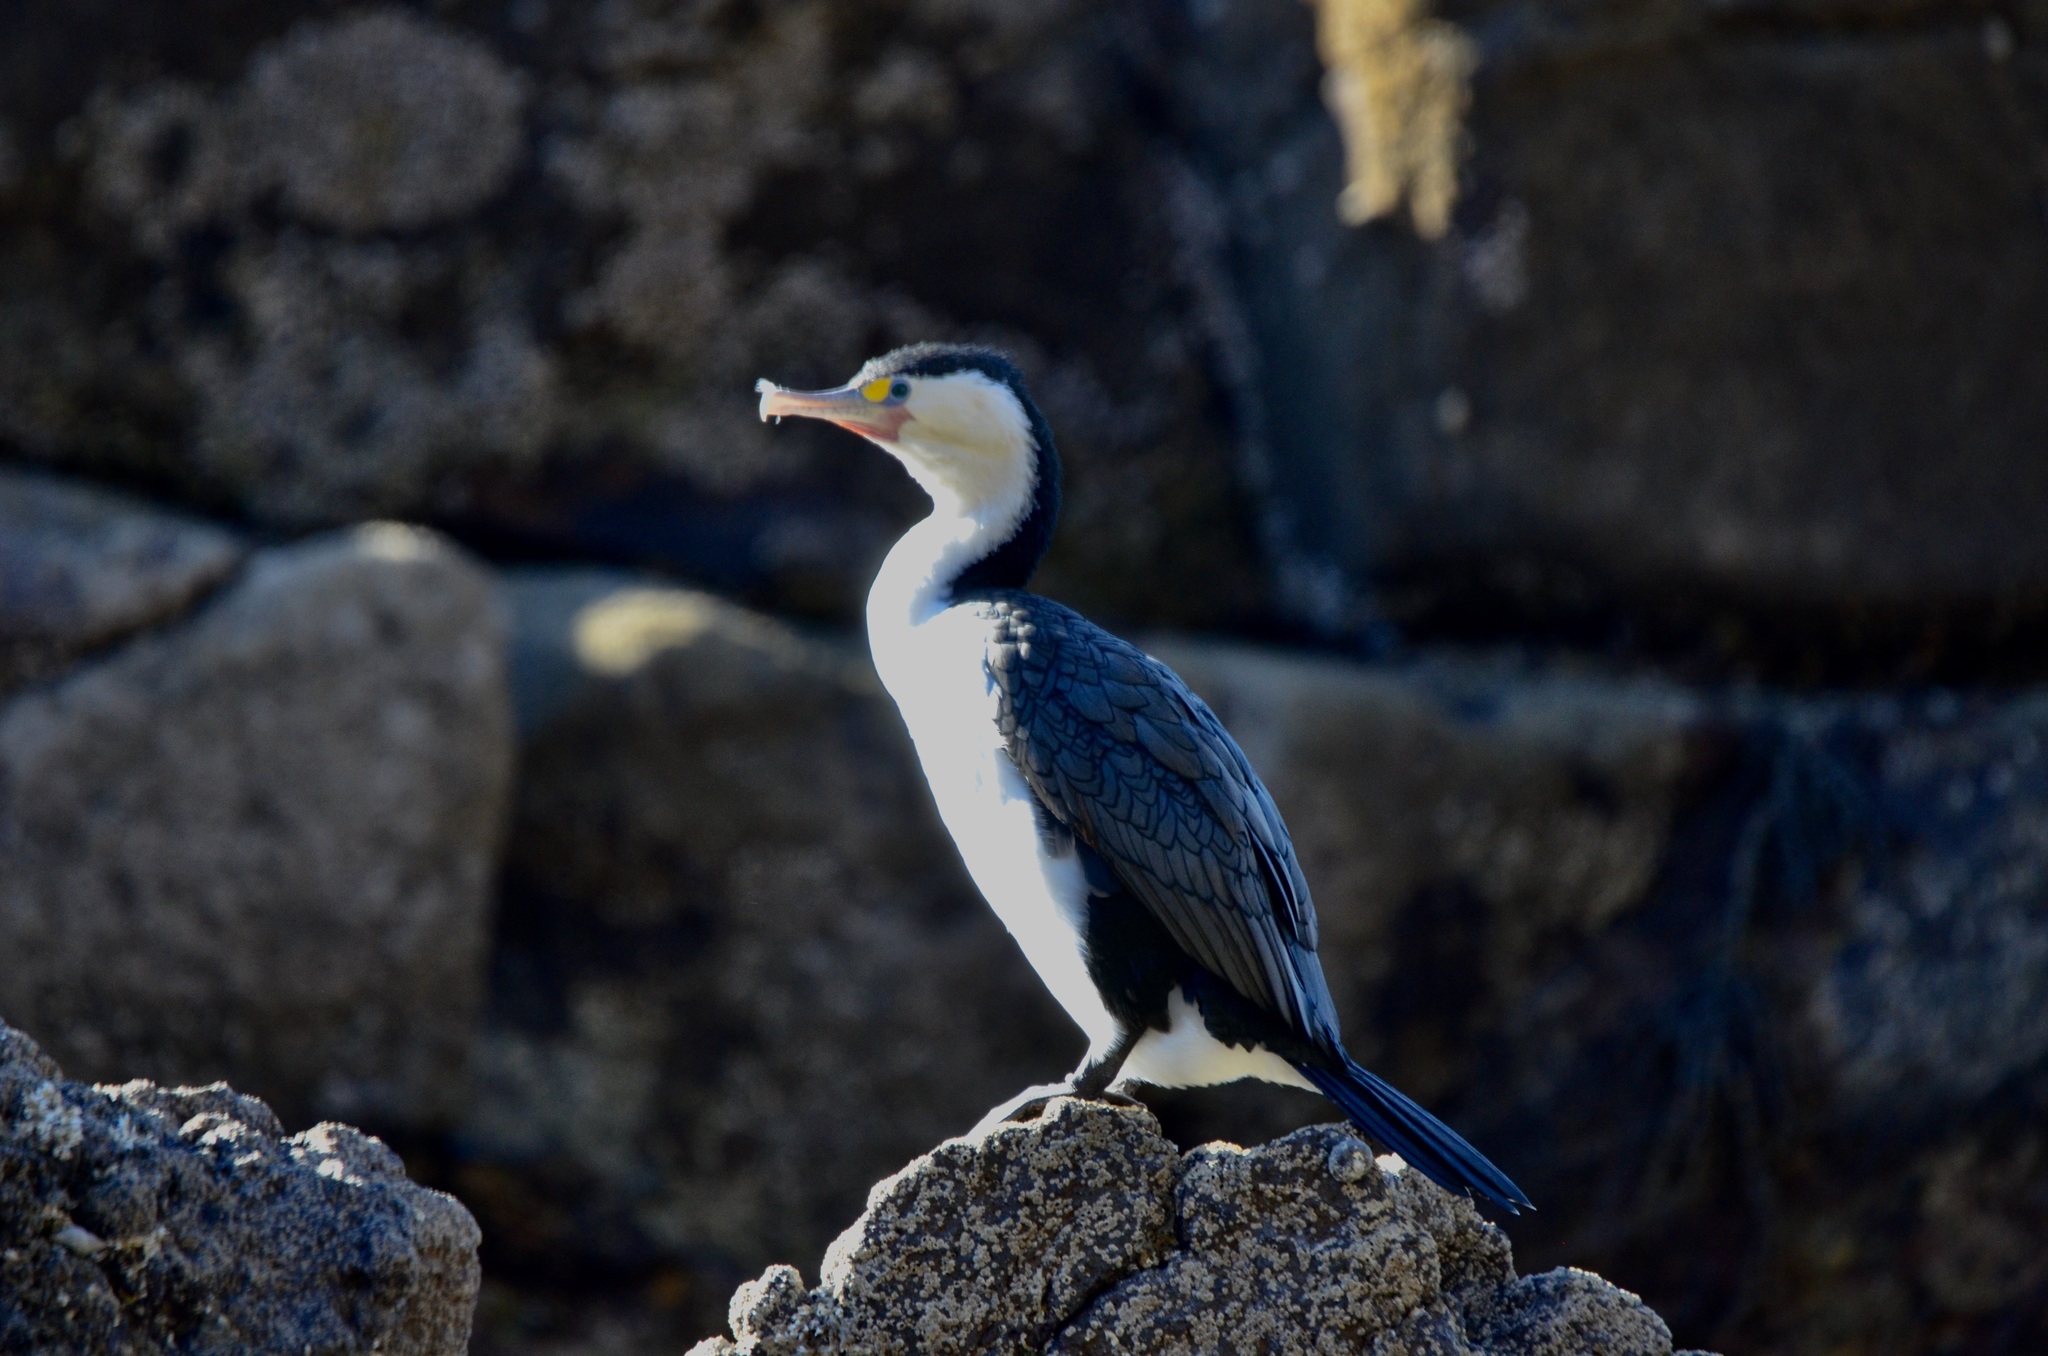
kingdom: Animalia
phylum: Chordata
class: Aves
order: Suliformes
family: Phalacrocoracidae
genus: Phalacrocorax
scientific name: Phalacrocorax varius
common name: Pied cormorant
